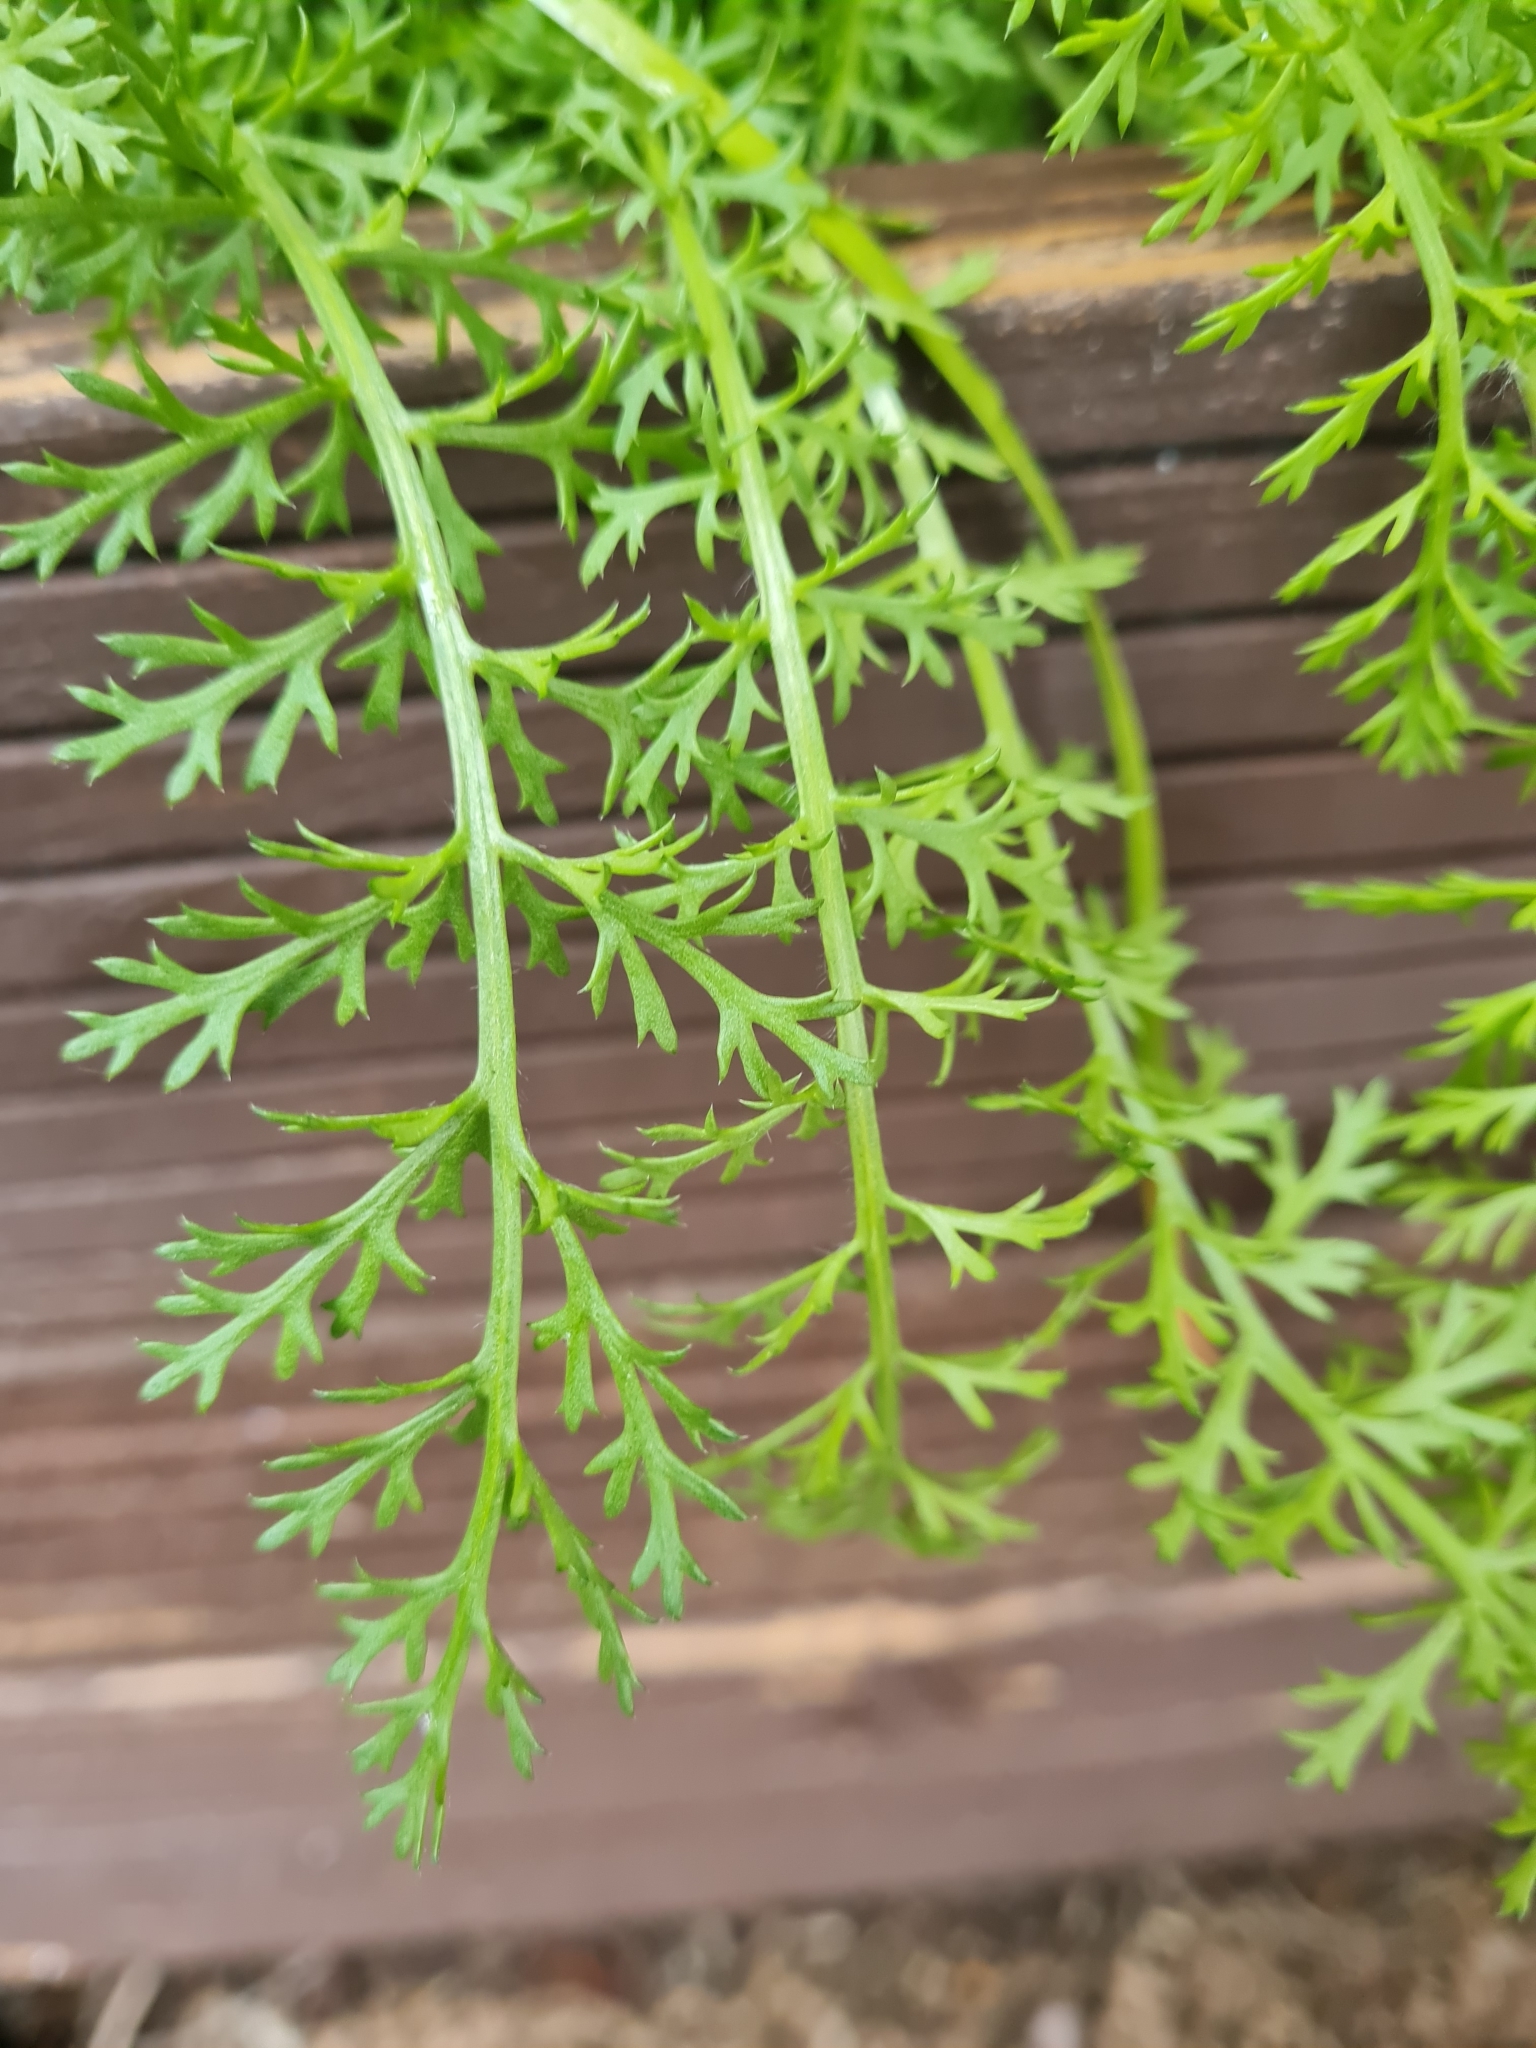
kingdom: Plantae
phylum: Tracheophyta
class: Magnoliopsida
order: Asterales
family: Asteraceae
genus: Achillea
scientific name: Achillea millefolium
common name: Yarrow
